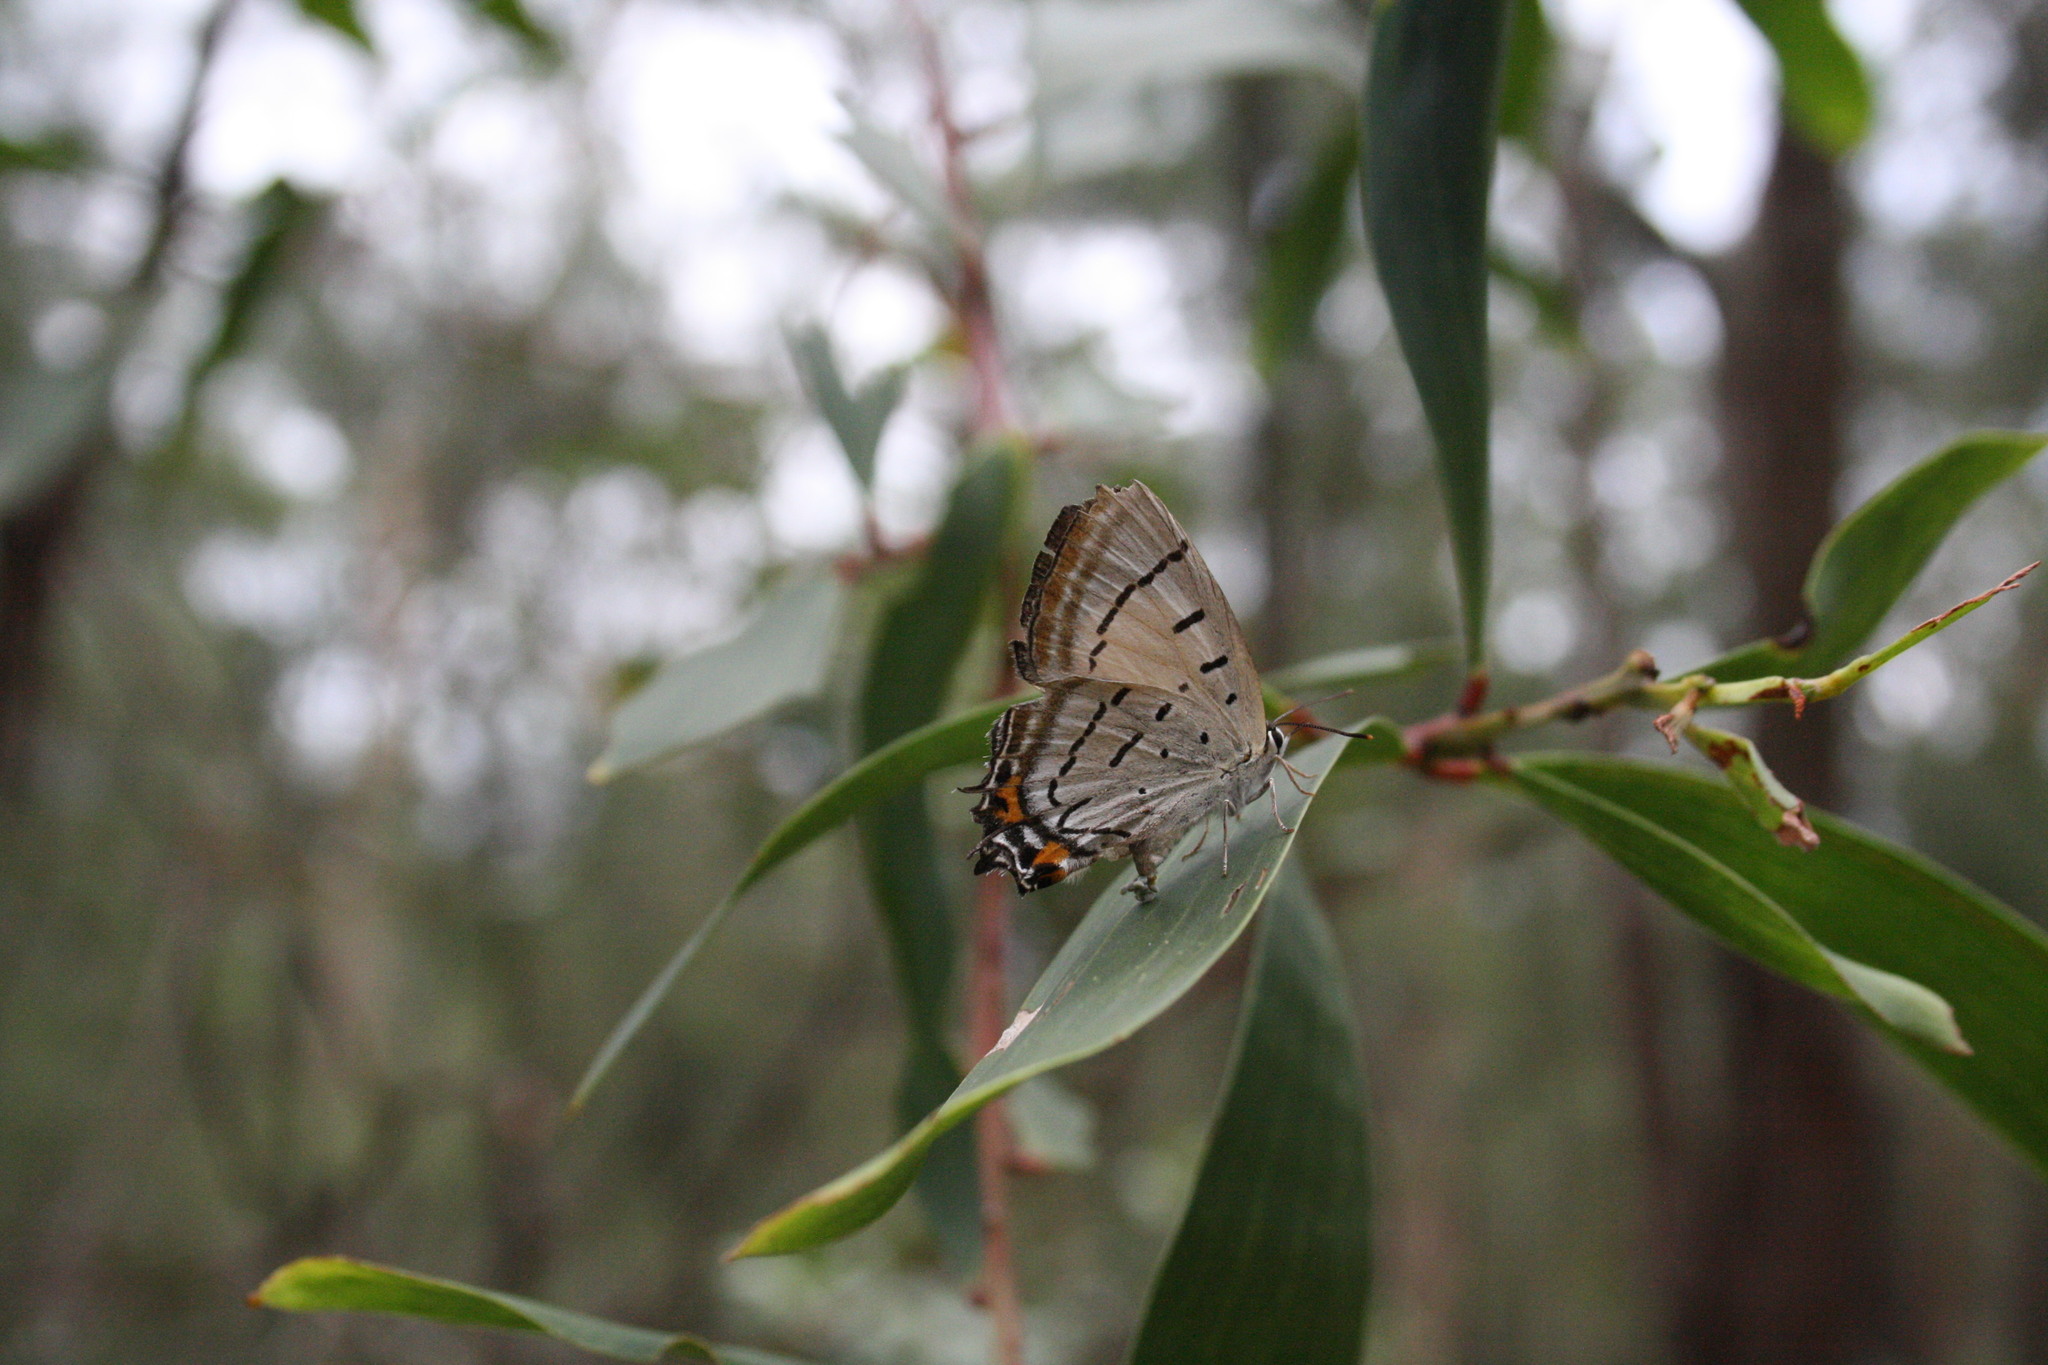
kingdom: Animalia
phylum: Arthropoda
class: Insecta
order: Lepidoptera
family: Lycaenidae
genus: Jalmenus
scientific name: Jalmenus evagoras
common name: Common imperial blue
